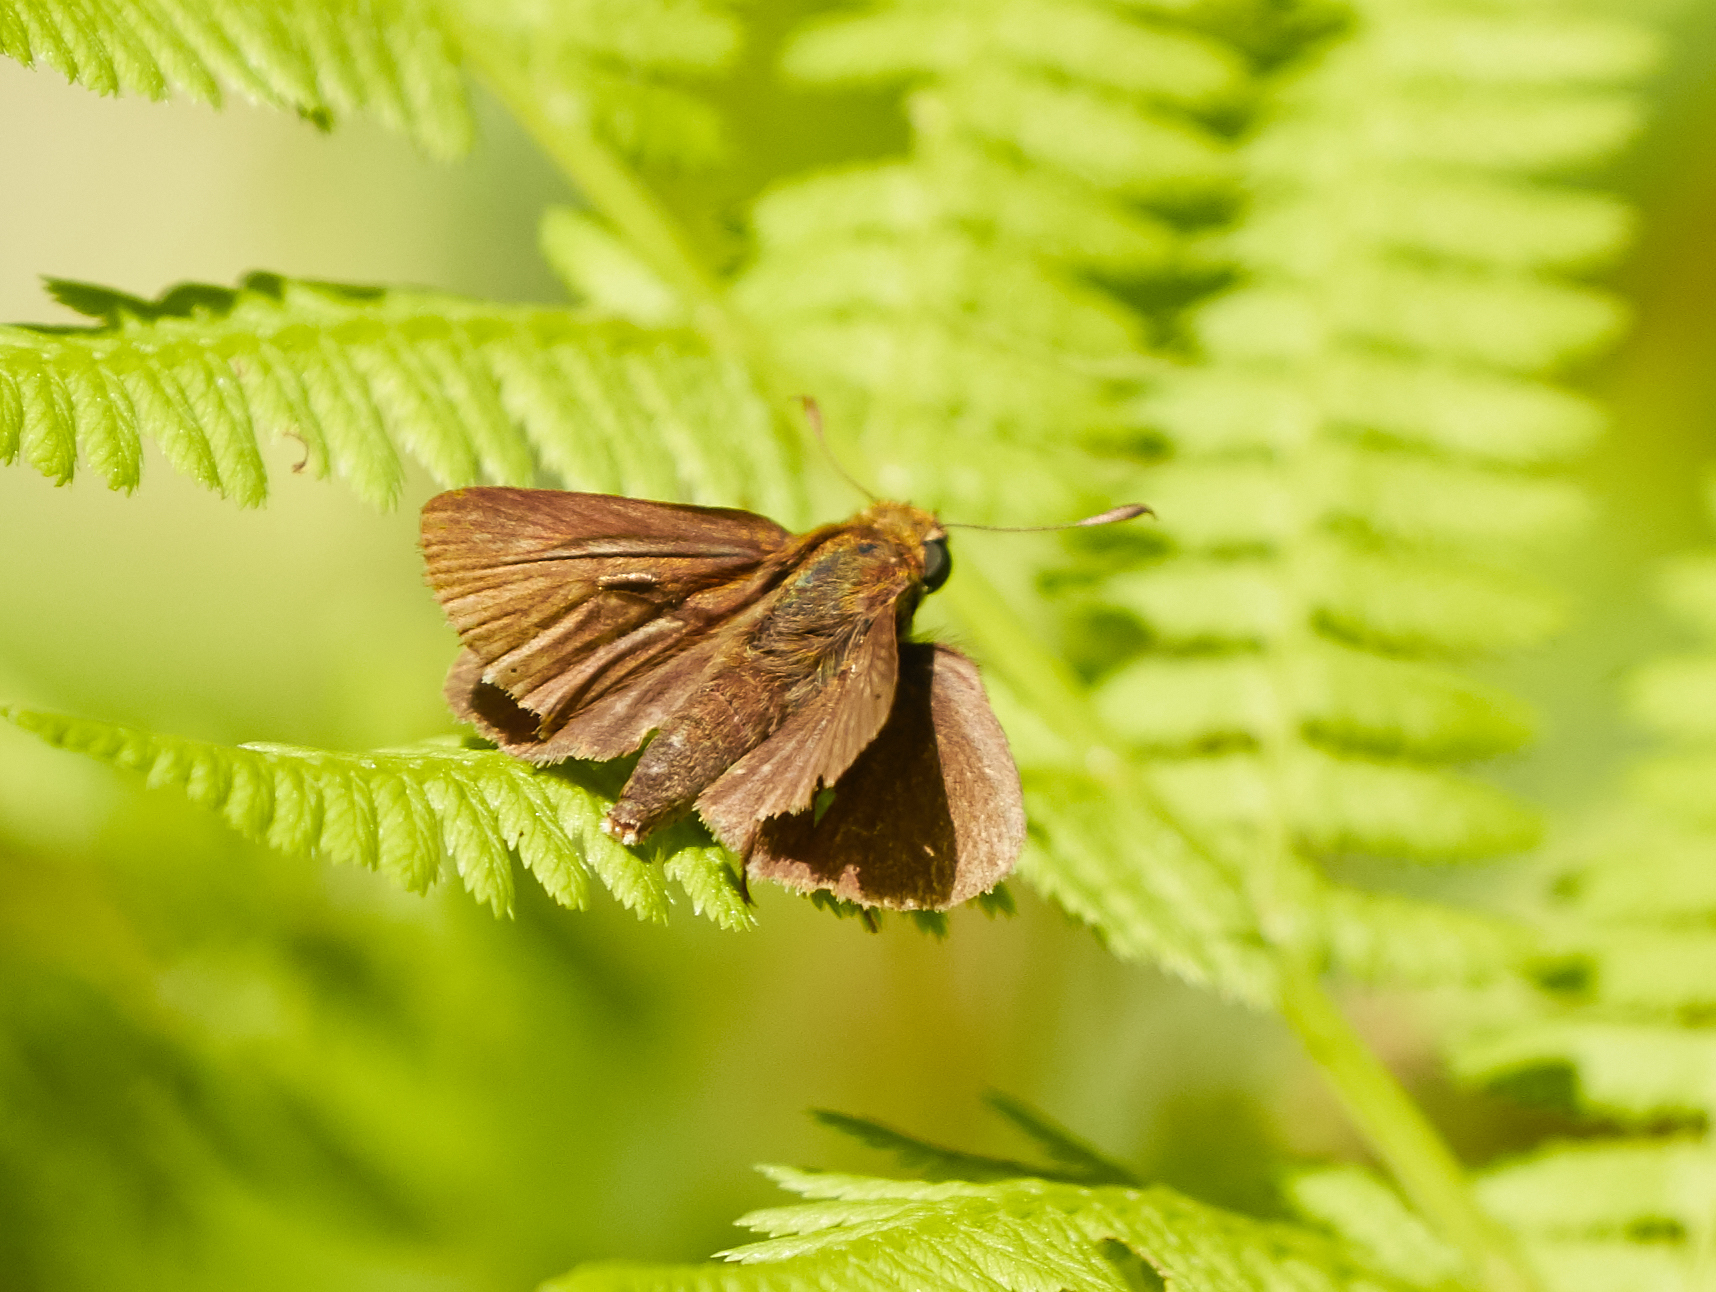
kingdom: Animalia
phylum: Arthropoda
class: Insecta
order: Lepidoptera
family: Hesperiidae
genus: Euphyes
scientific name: Euphyes vestris
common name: Dun skipper
